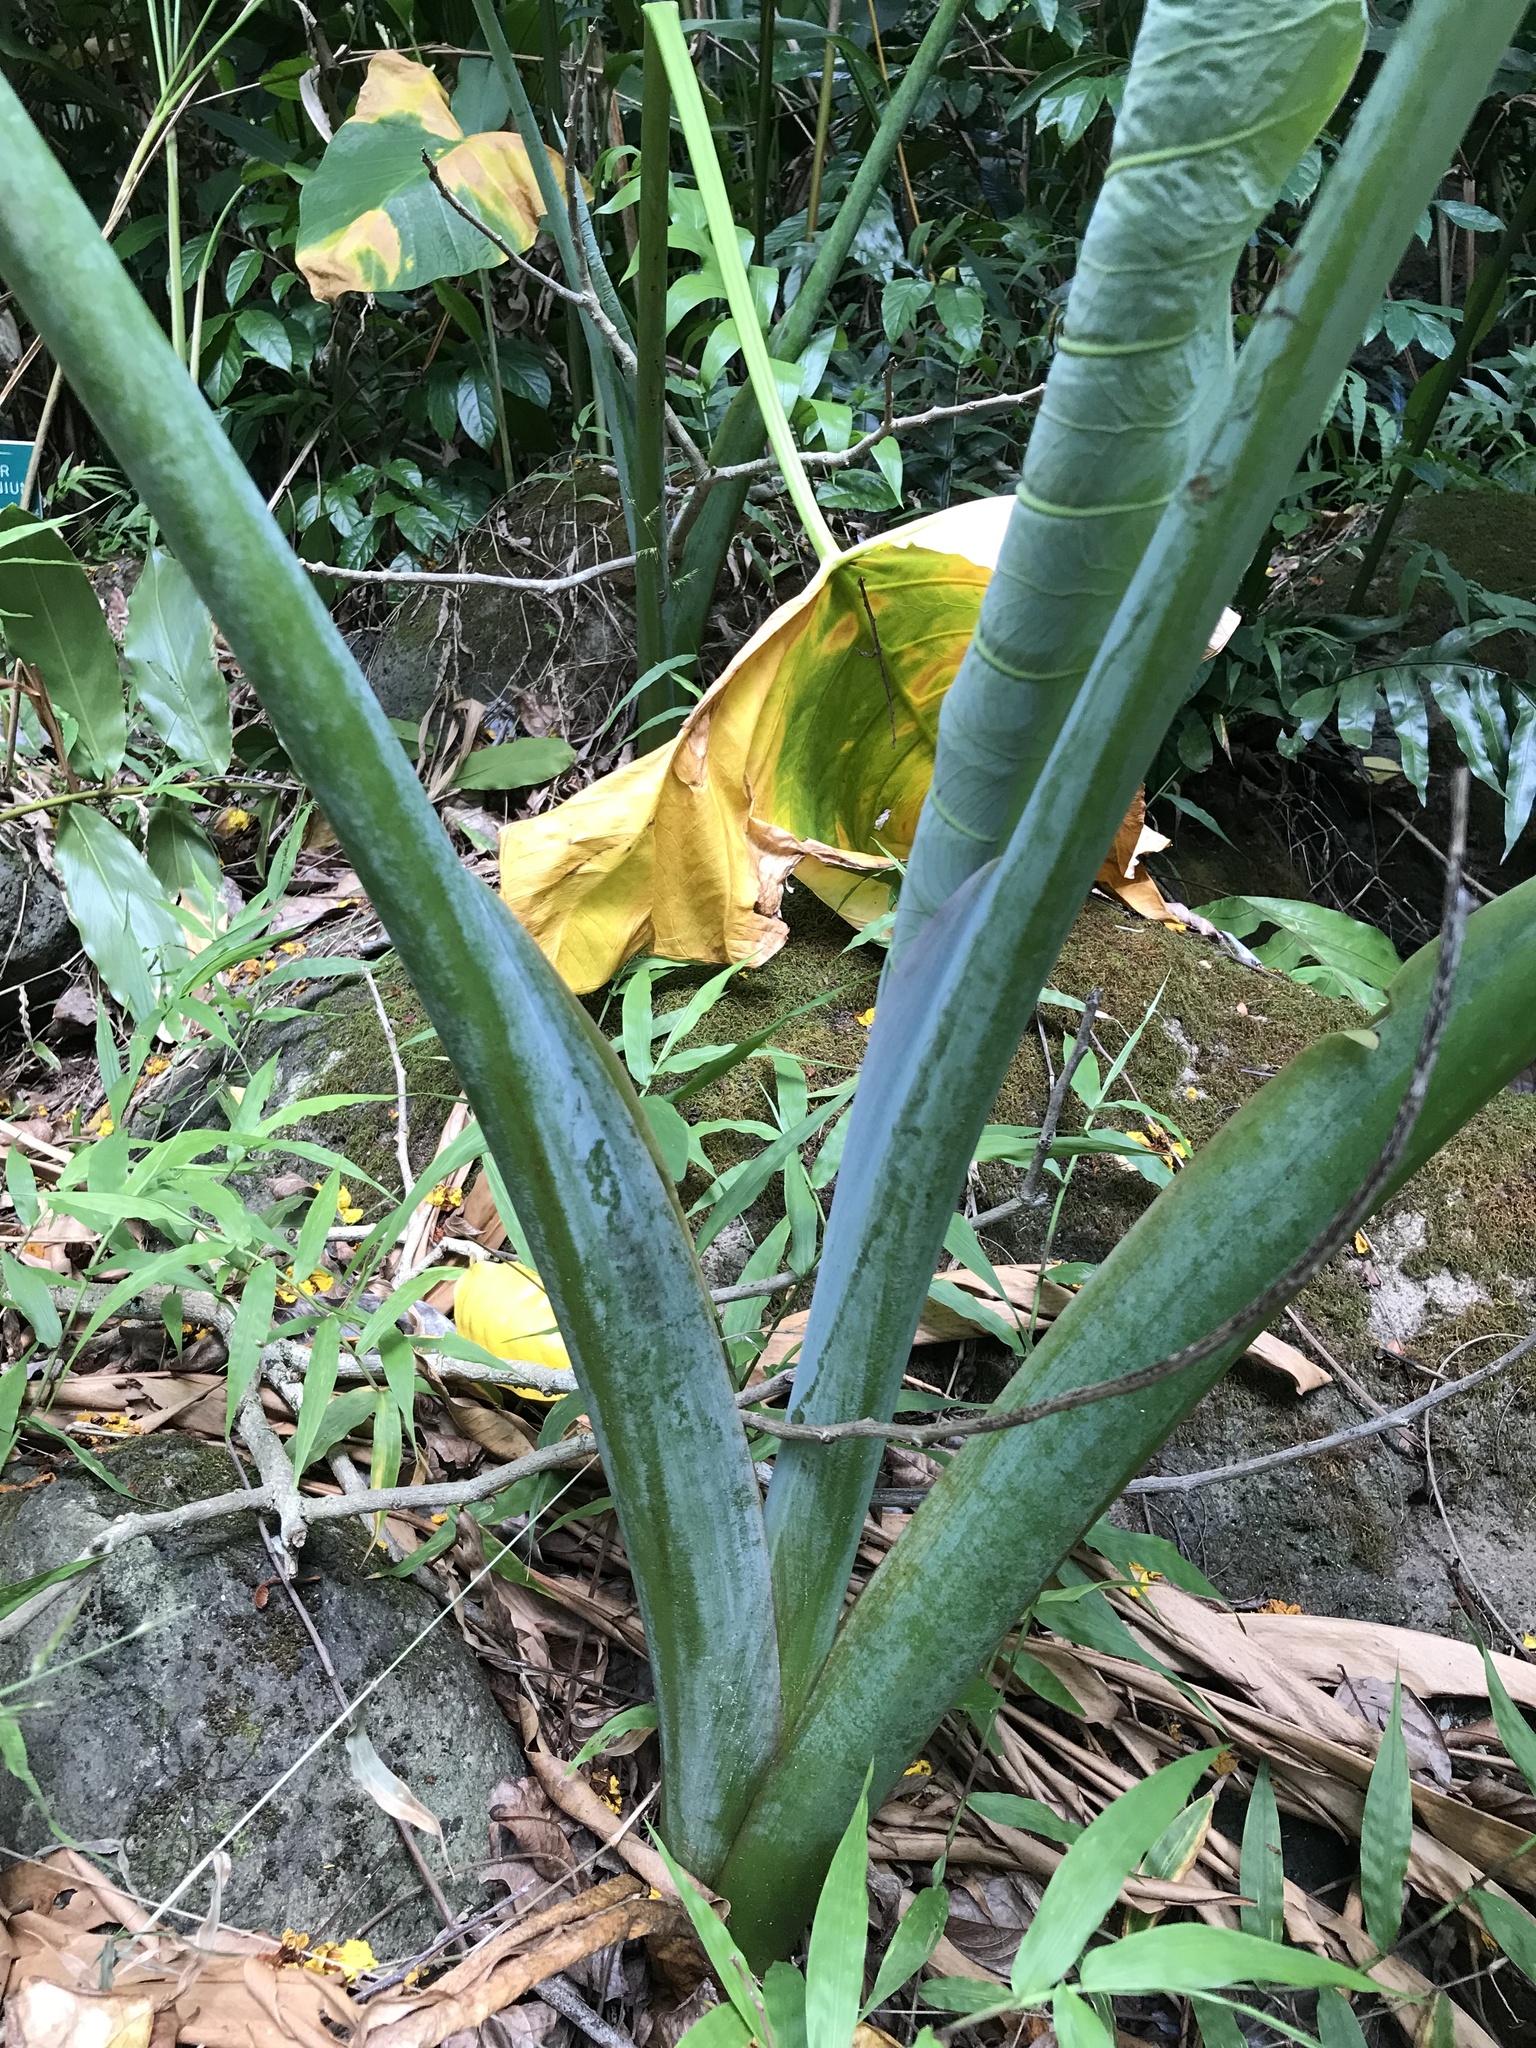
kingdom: Plantae
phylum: Tracheophyta
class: Liliopsida
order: Alismatales
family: Araceae
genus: Xanthosoma
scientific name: Xanthosoma robustum
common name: Capote
